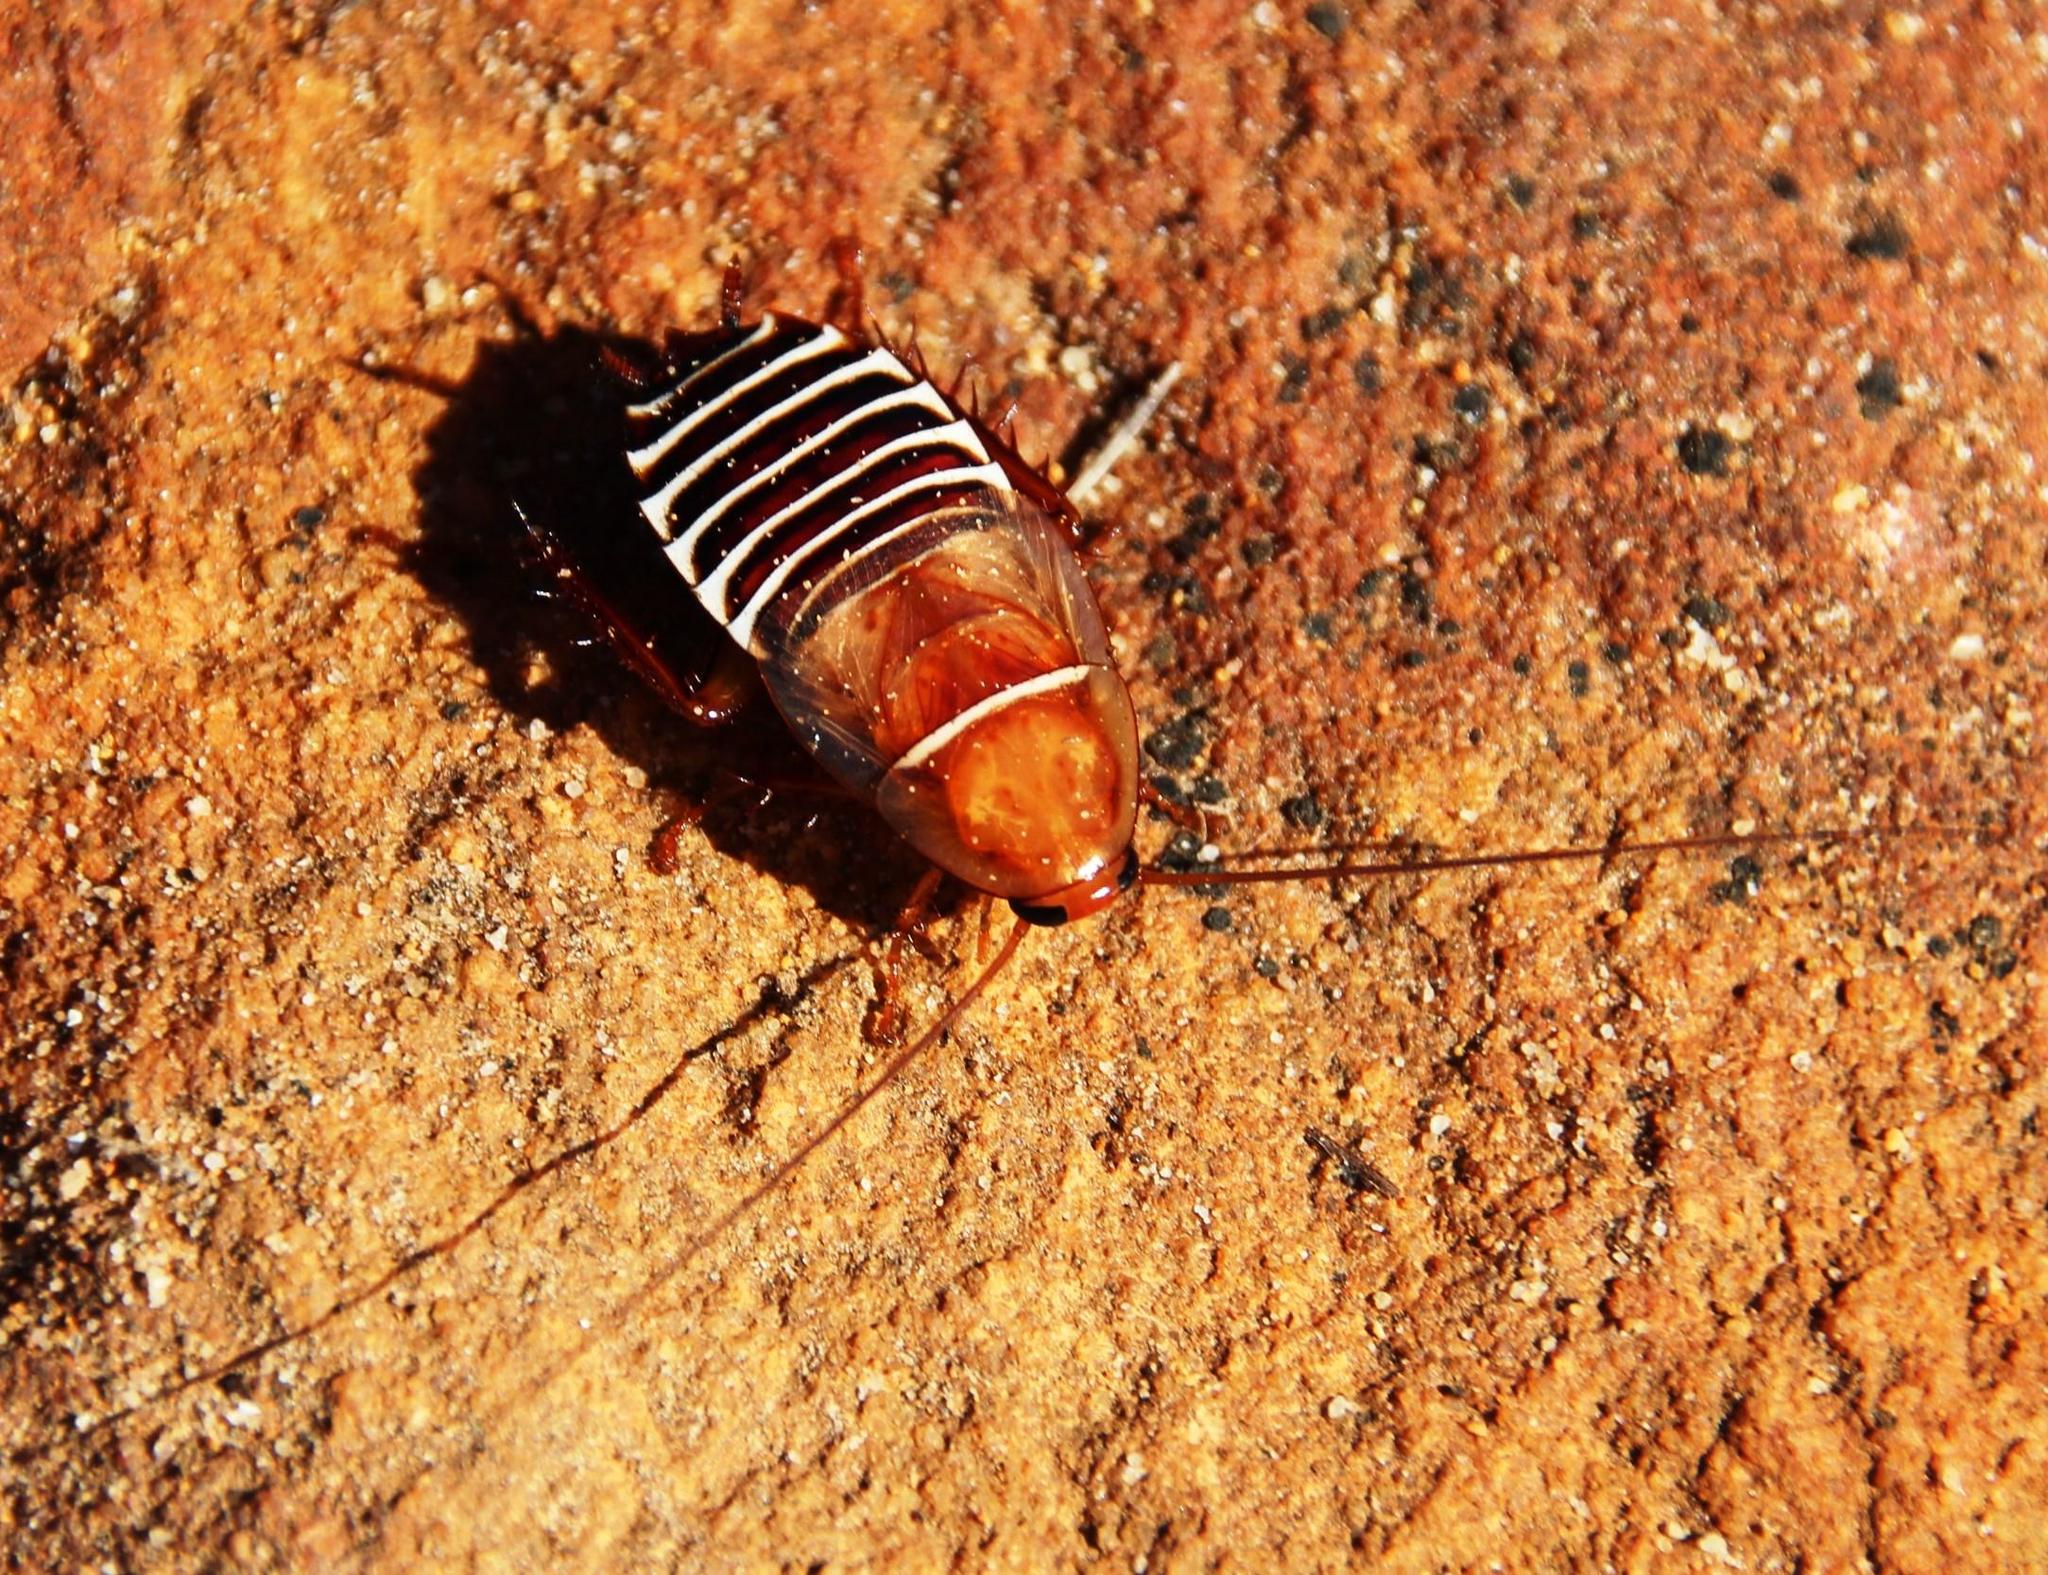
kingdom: Animalia
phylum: Arthropoda
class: Insecta
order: Blattodea
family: Ectobiidae
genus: Temnopteryx
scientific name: Temnopteryx phalerata
